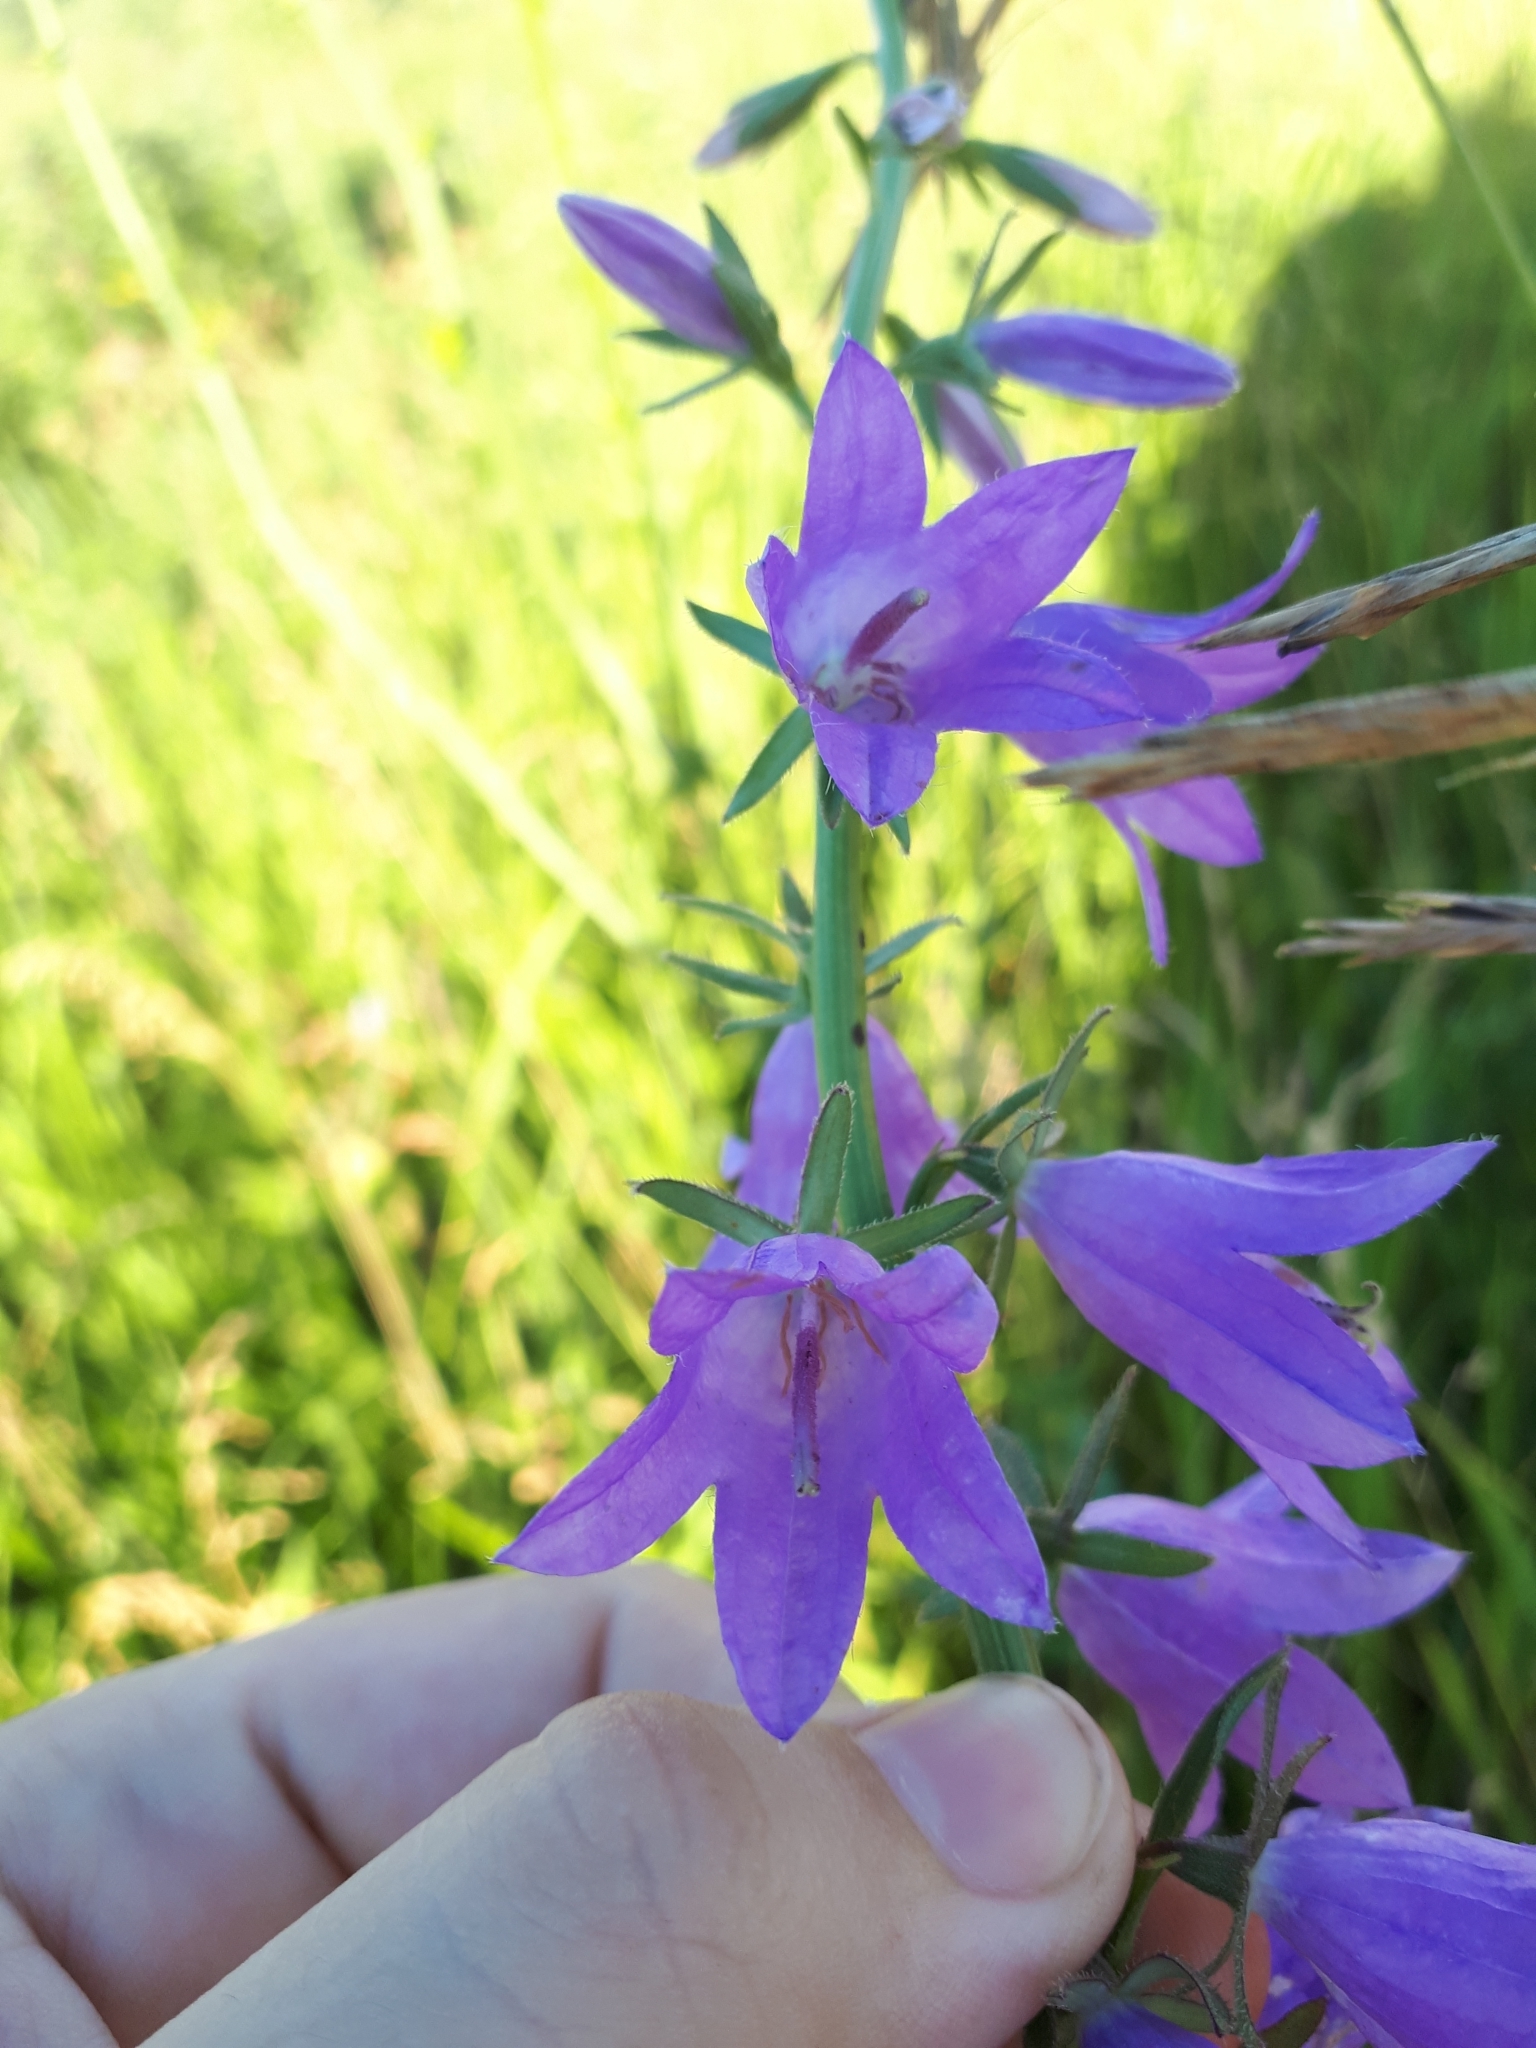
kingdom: Plantae
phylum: Tracheophyta
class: Magnoliopsida
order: Asterales
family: Campanulaceae
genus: Campanula
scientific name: Campanula rapunculoides
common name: Creeping bellflower
